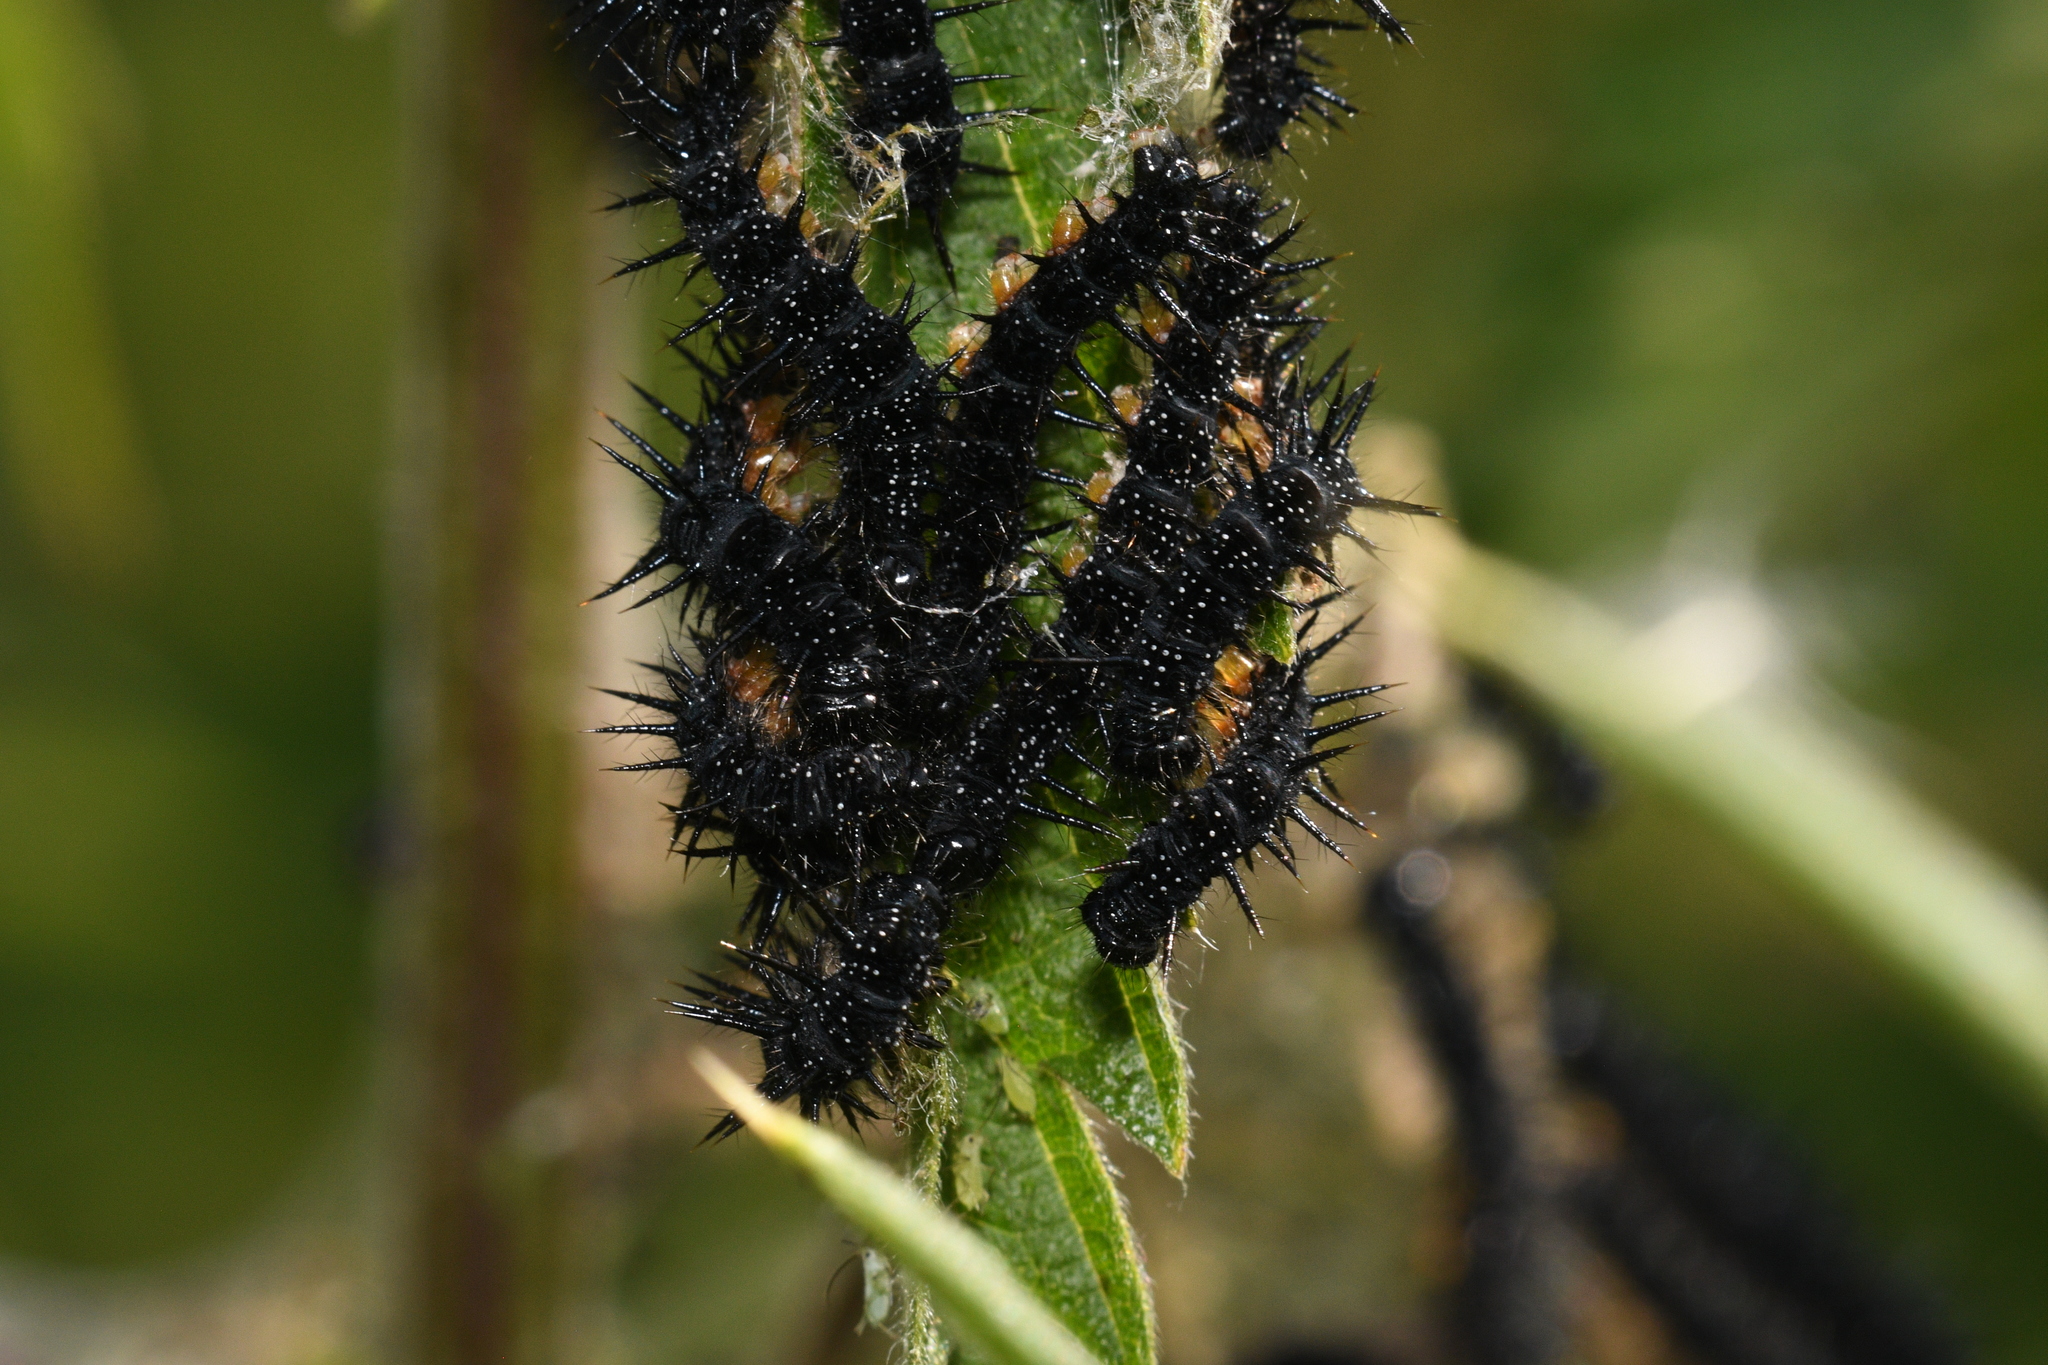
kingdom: Animalia
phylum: Arthropoda
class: Insecta
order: Lepidoptera
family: Nymphalidae
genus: Aglais
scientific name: Aglais io
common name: Peacock
